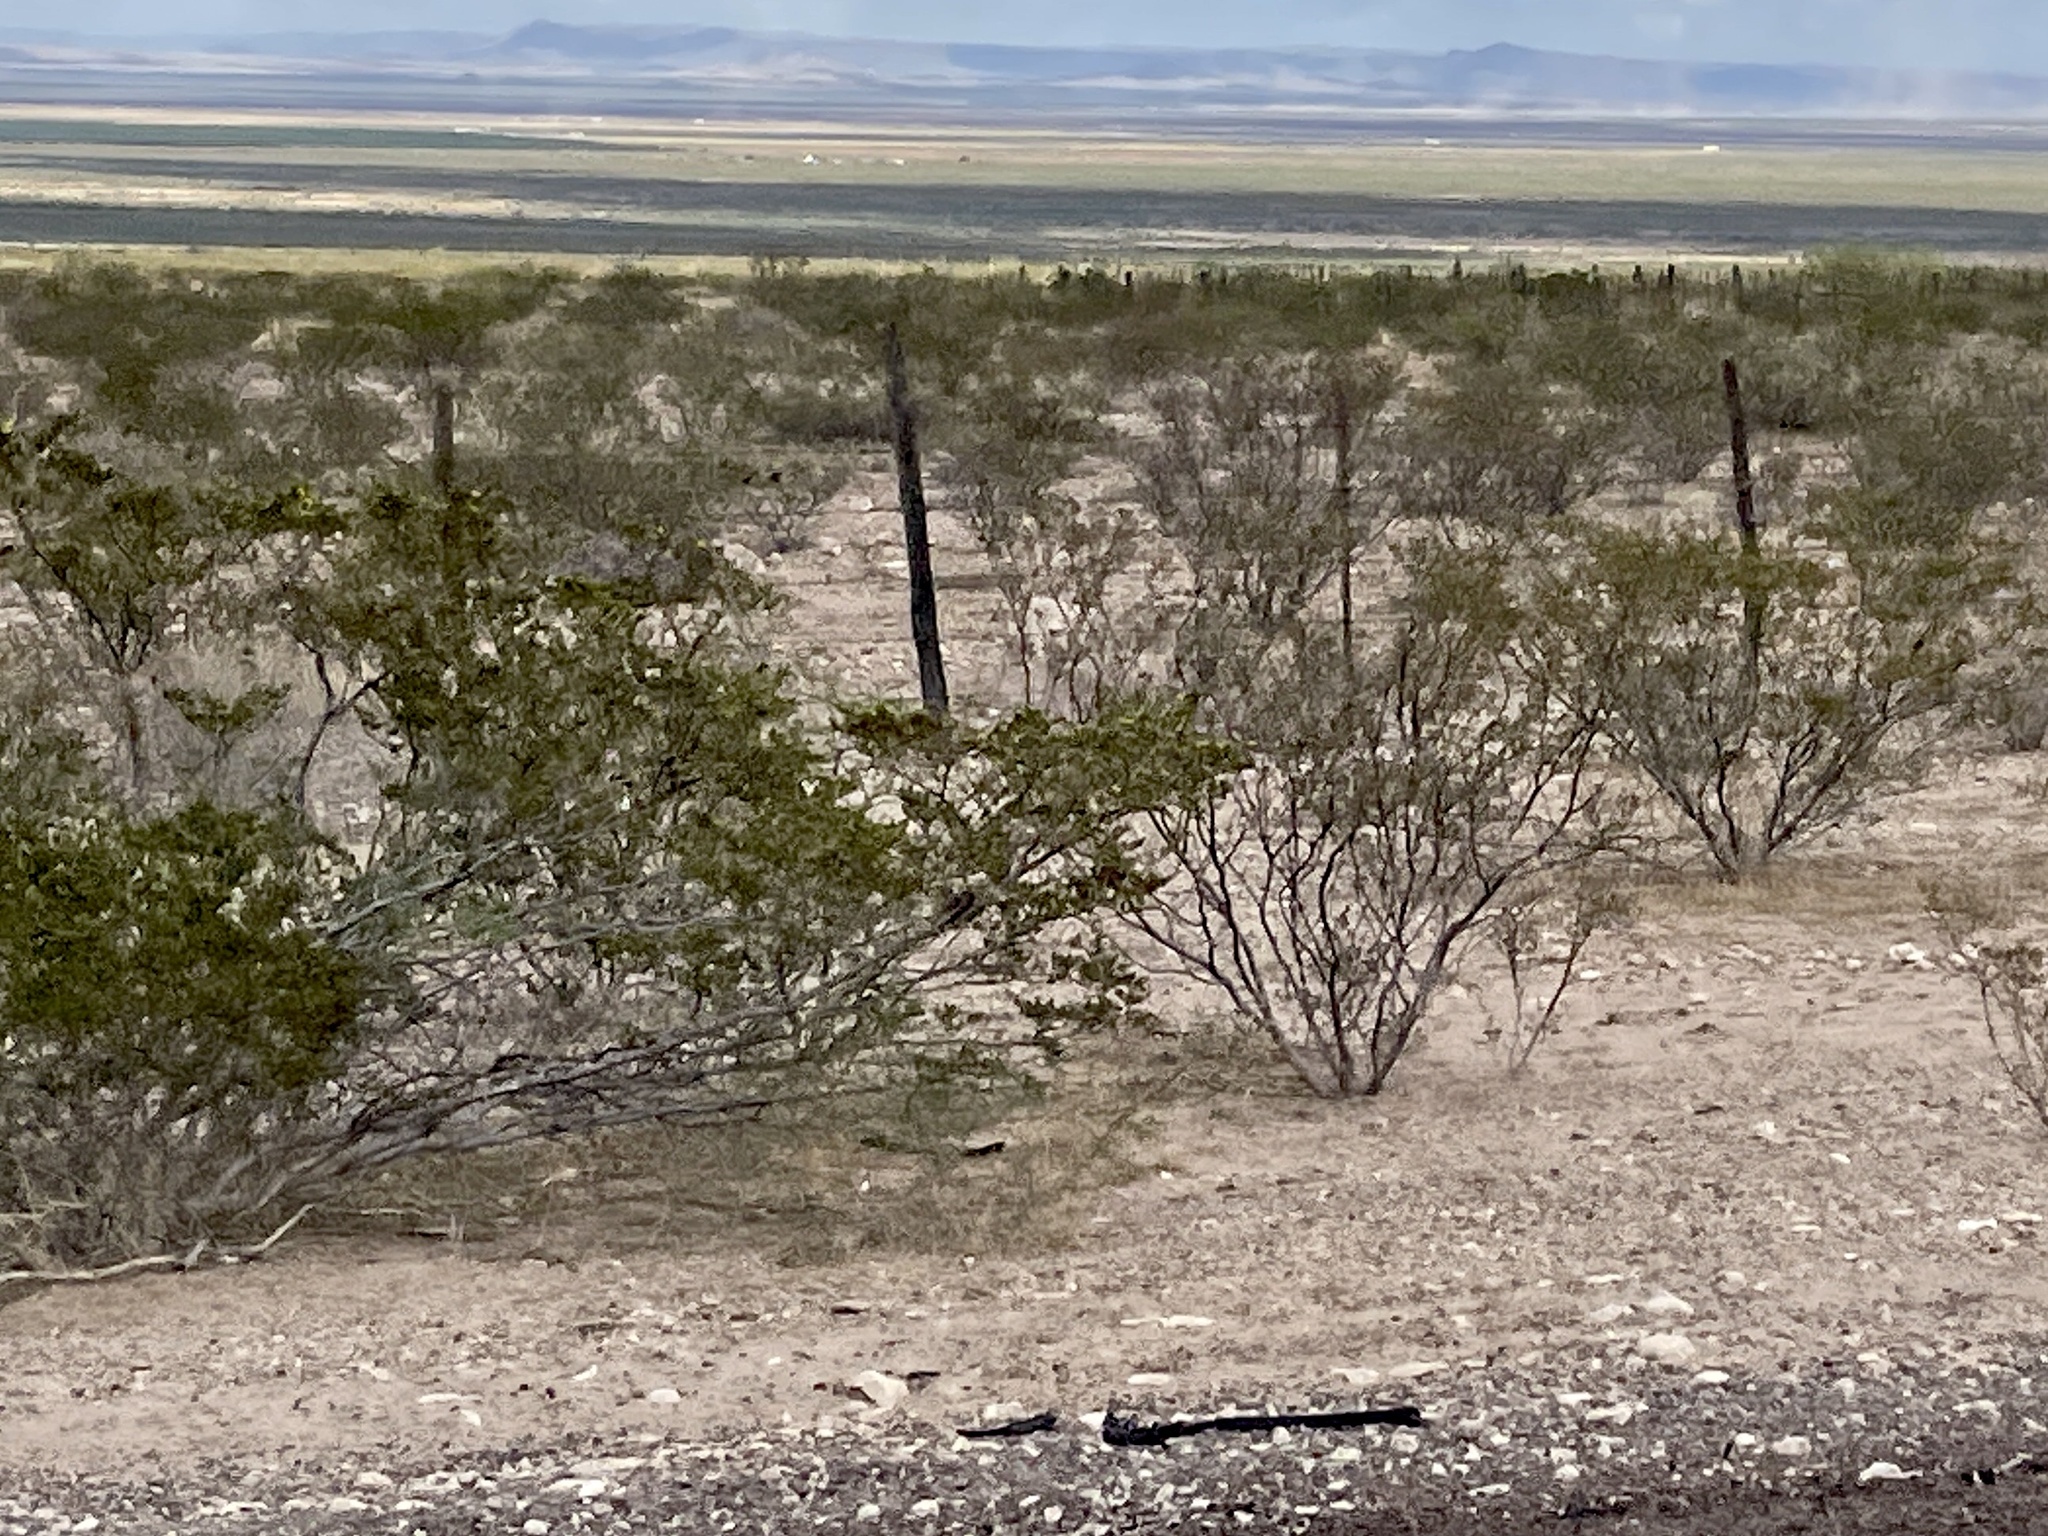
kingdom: Plantae
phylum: Tracheophyta
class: Magnoliopsida
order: Zygophyllales
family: Zygophyllaceae
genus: Larrea
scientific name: Larrea tridentata
